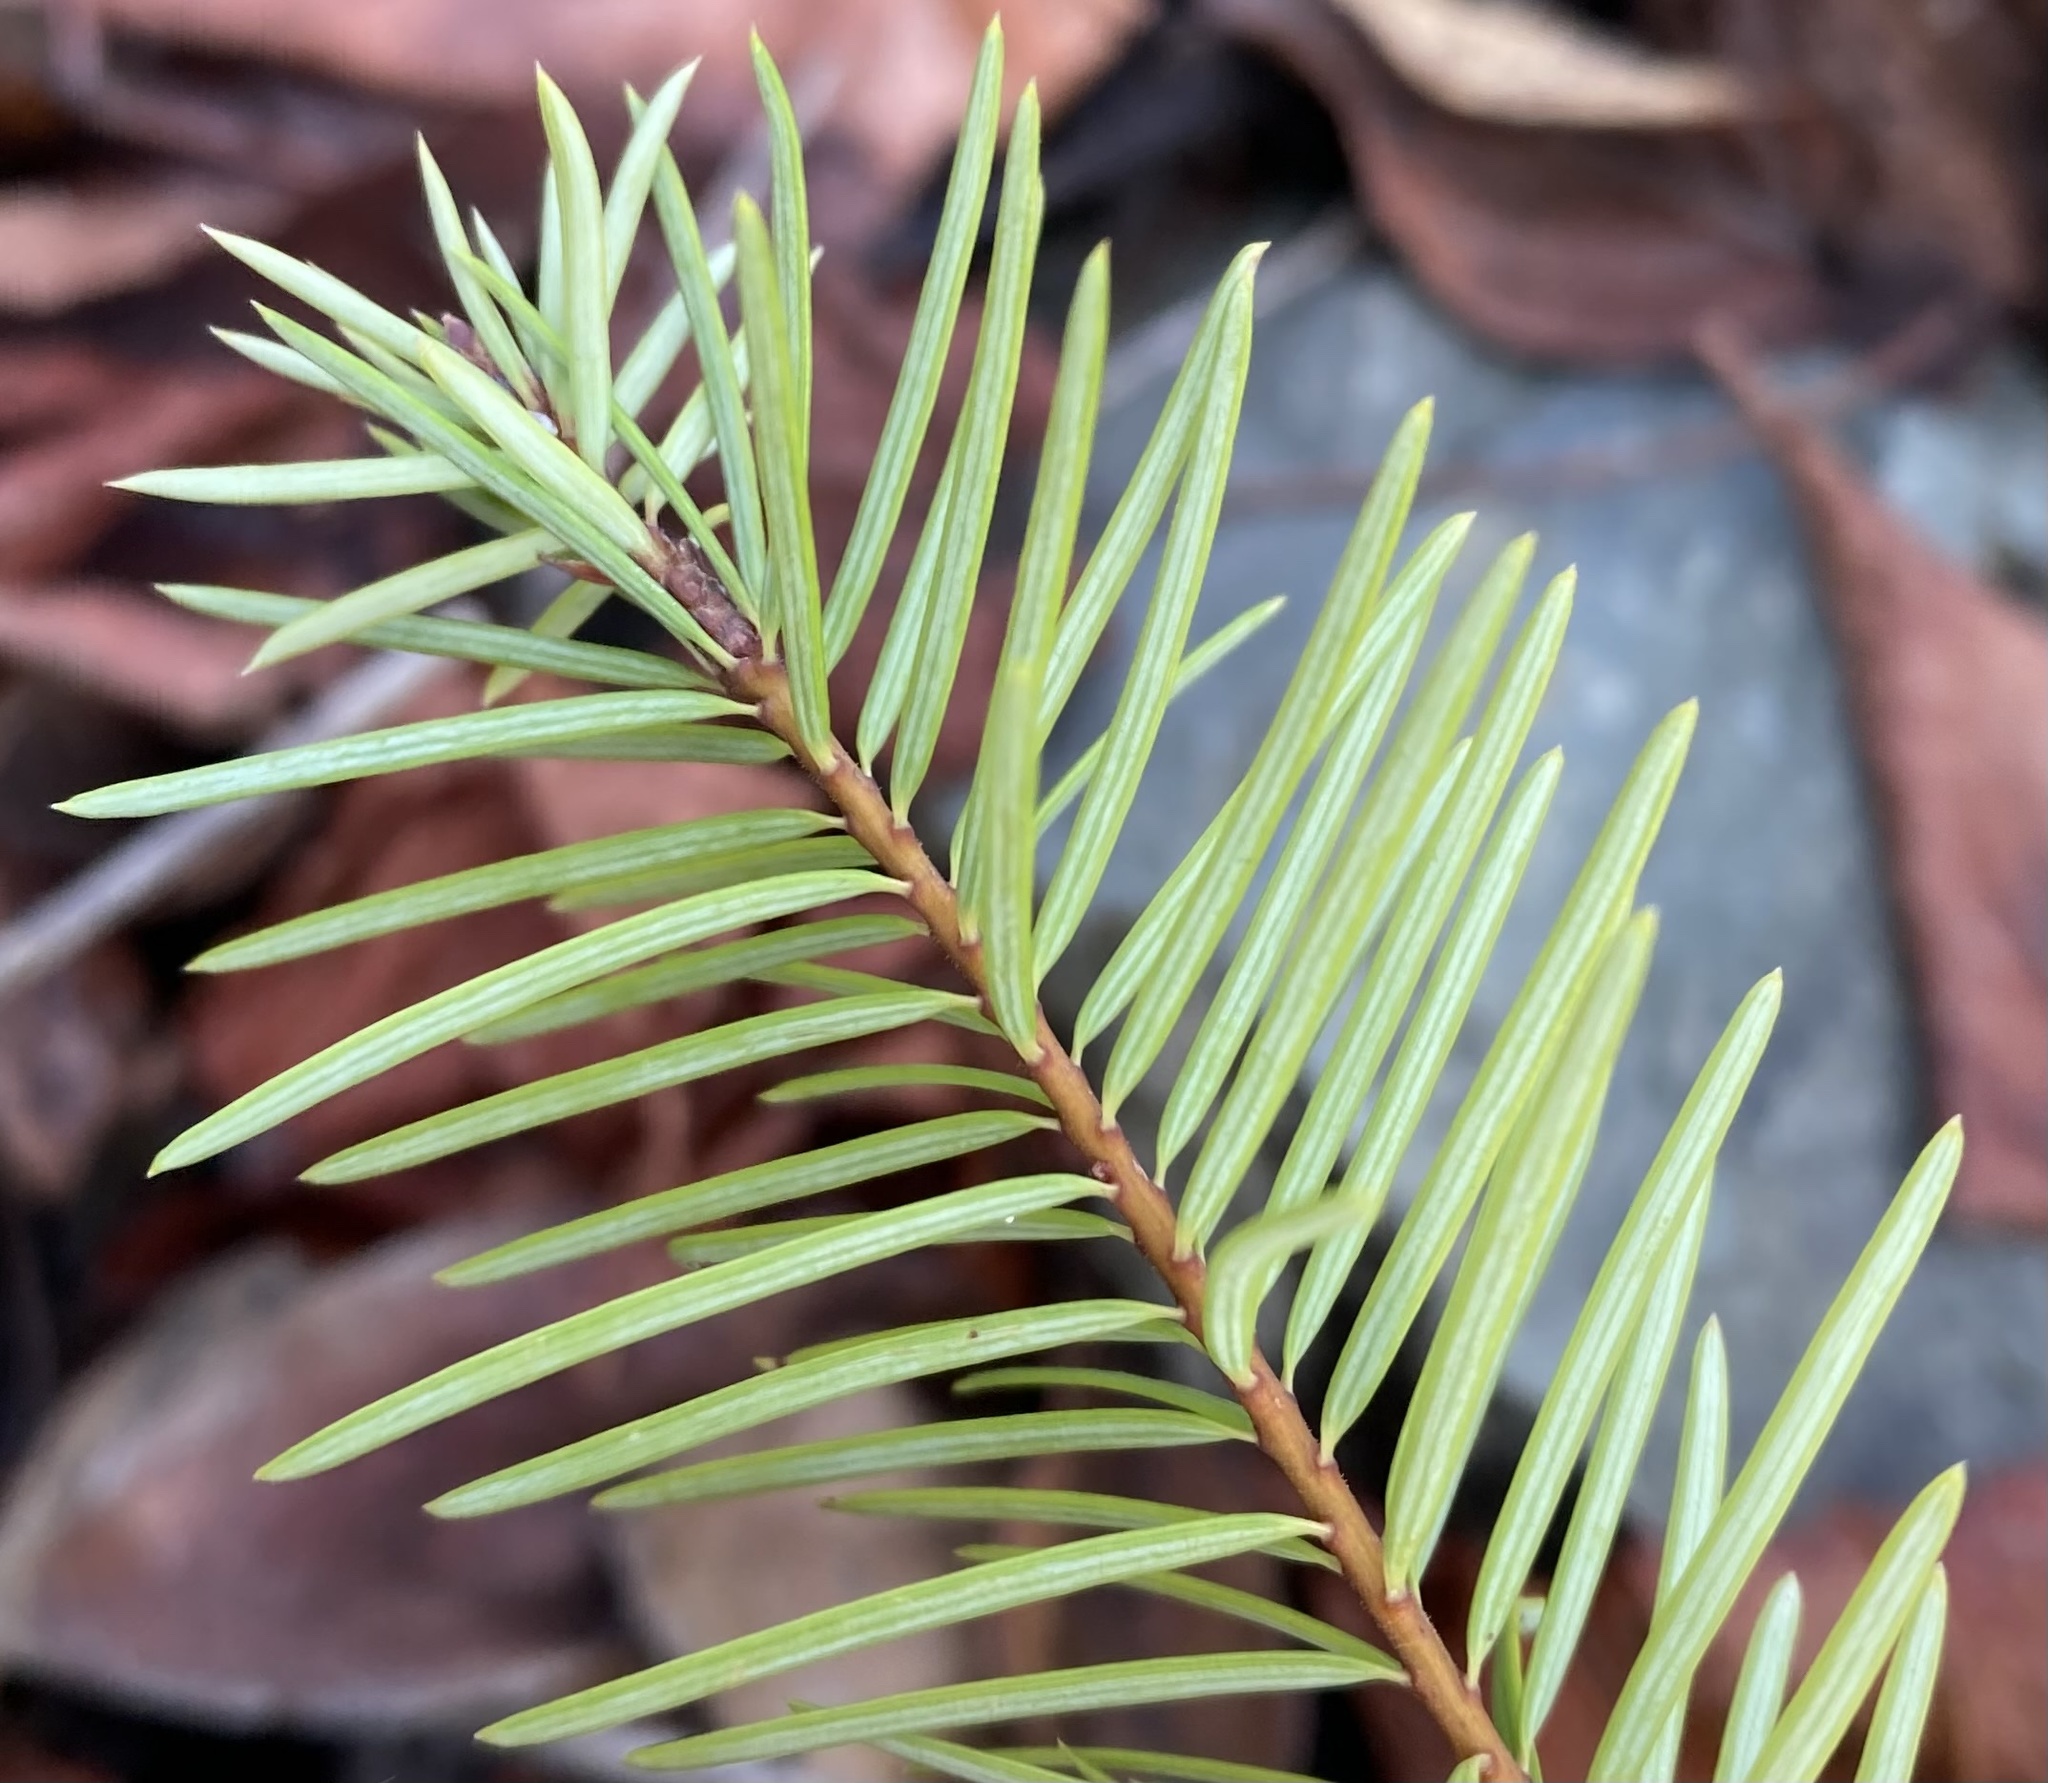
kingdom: Plantae
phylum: Tracheophyta
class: Pinopsida
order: Pinales
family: Pinaceae
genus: Pseudotsuga
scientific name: Pseudotsuga menziesii
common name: Douglas fir
